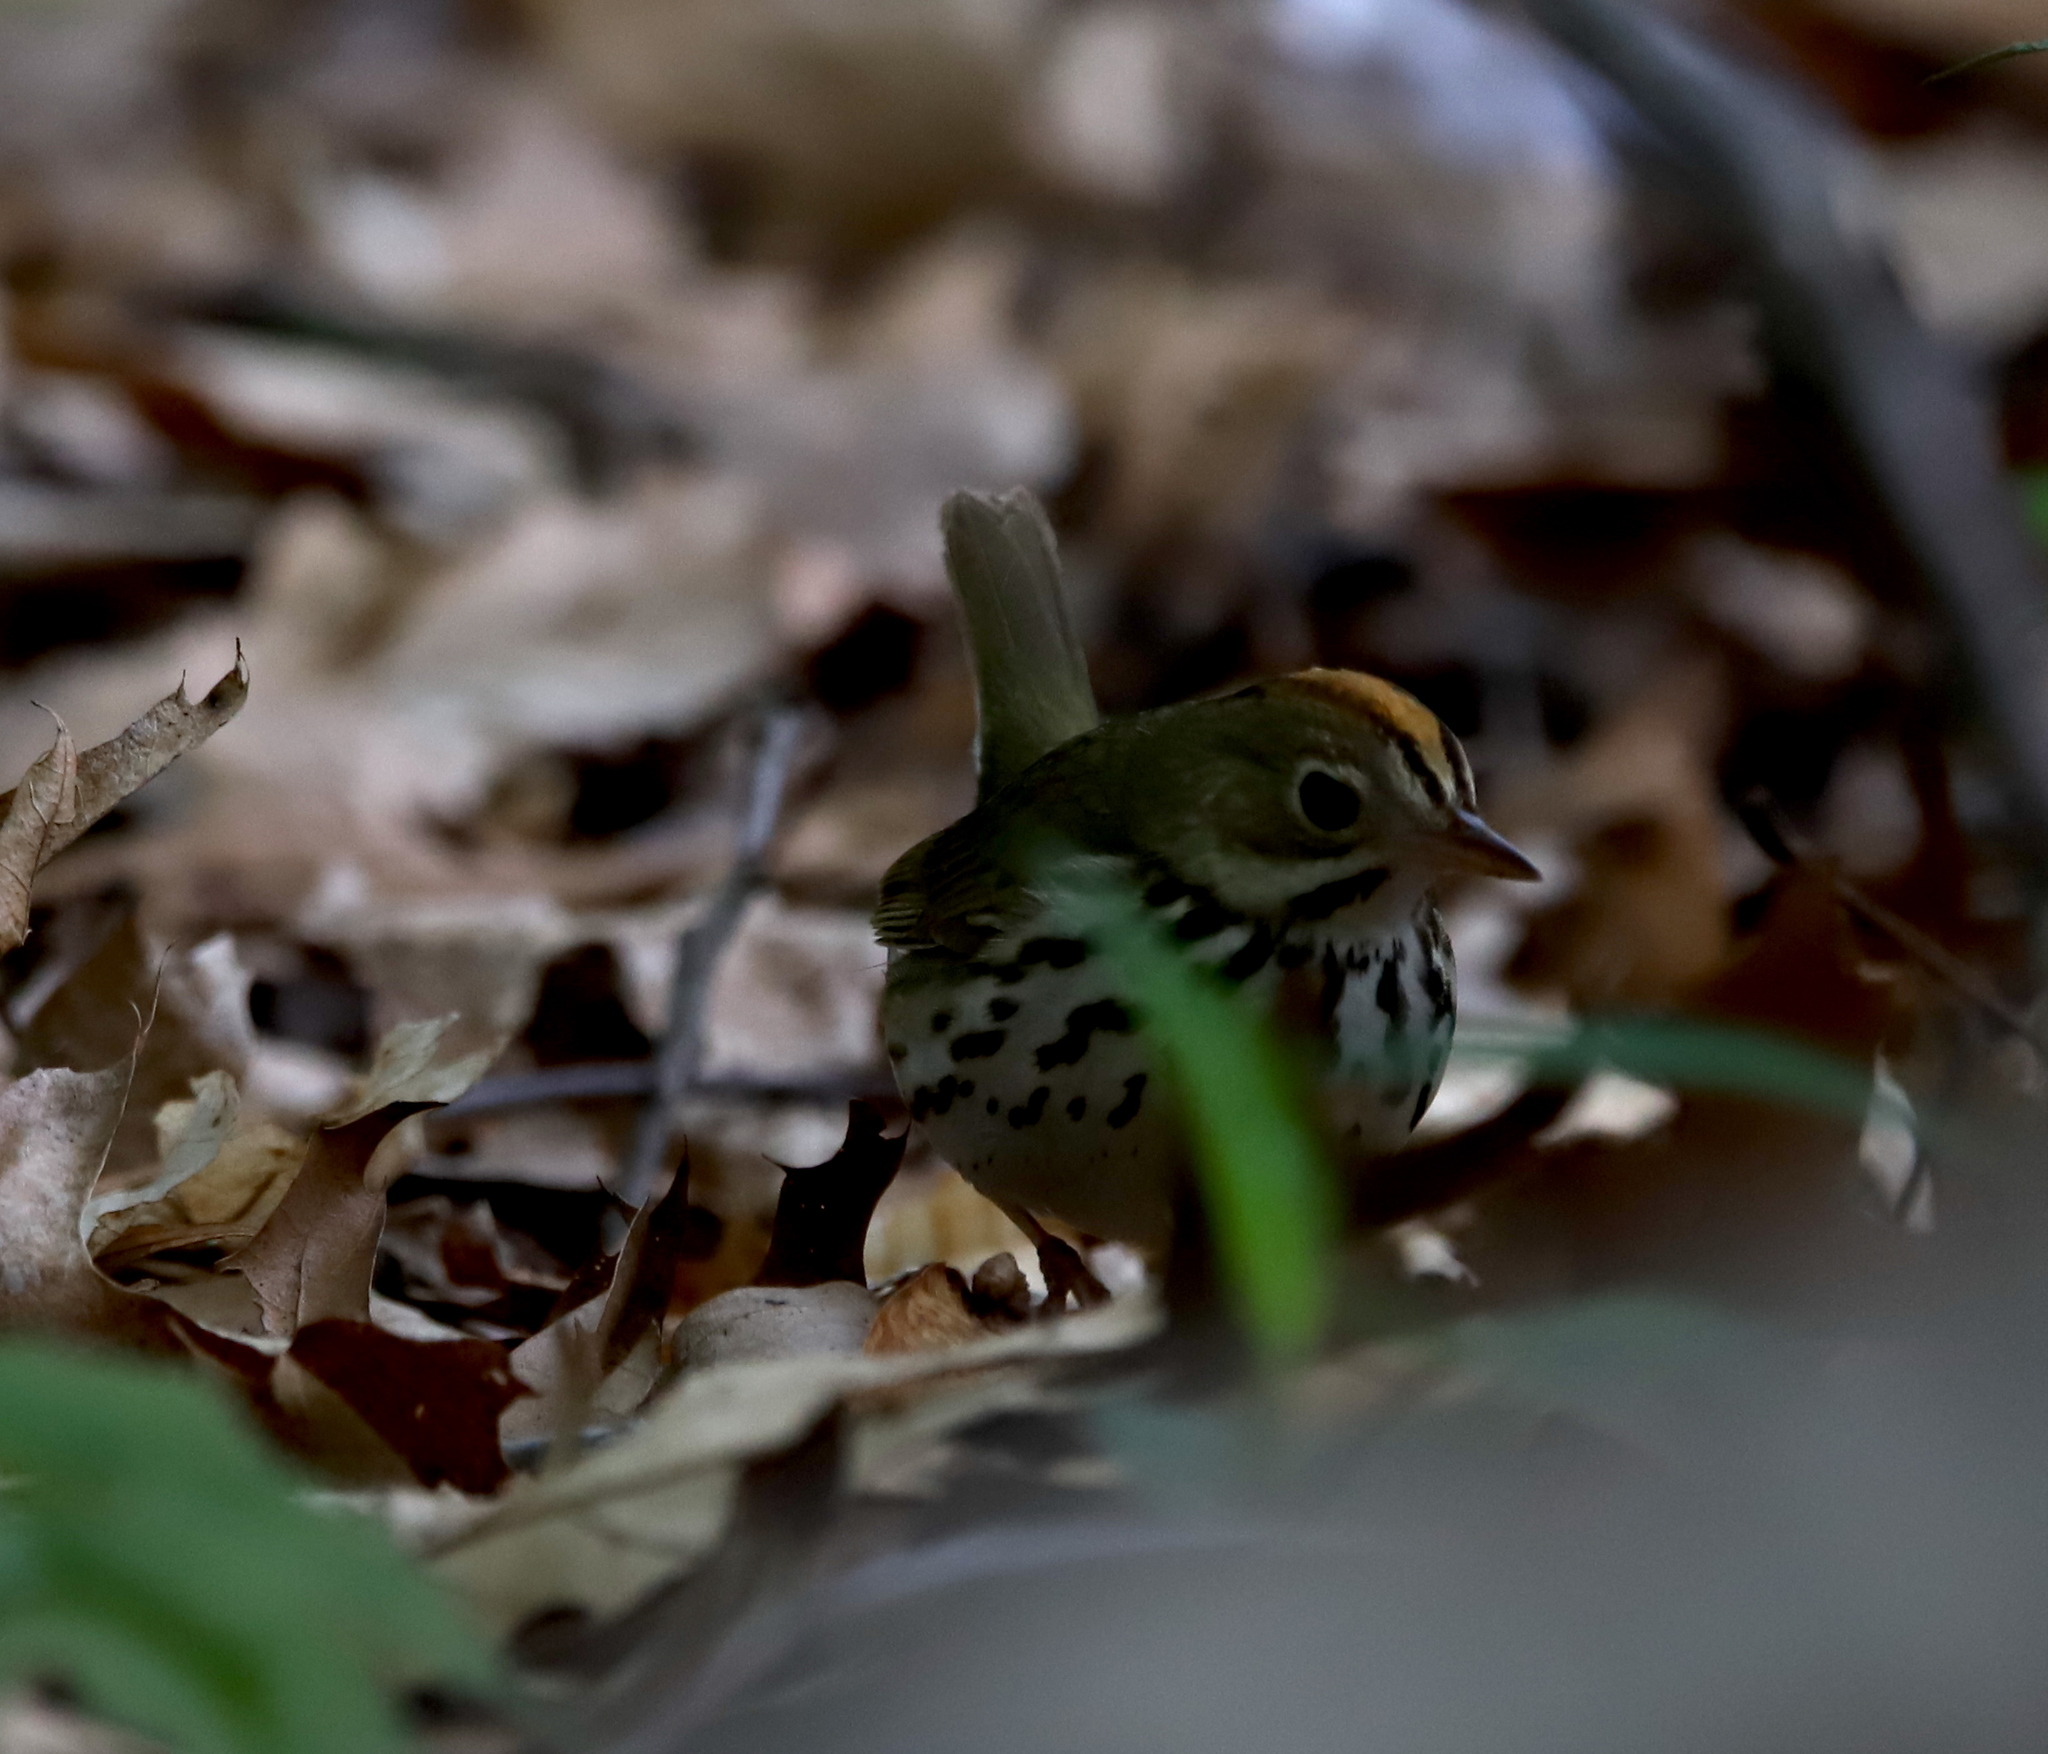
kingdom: Animalia
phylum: Chordata
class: Aves
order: Passeriformes
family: Parulidae
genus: Seiurus
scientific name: Seiurus aurocapilla
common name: Ovenbird
